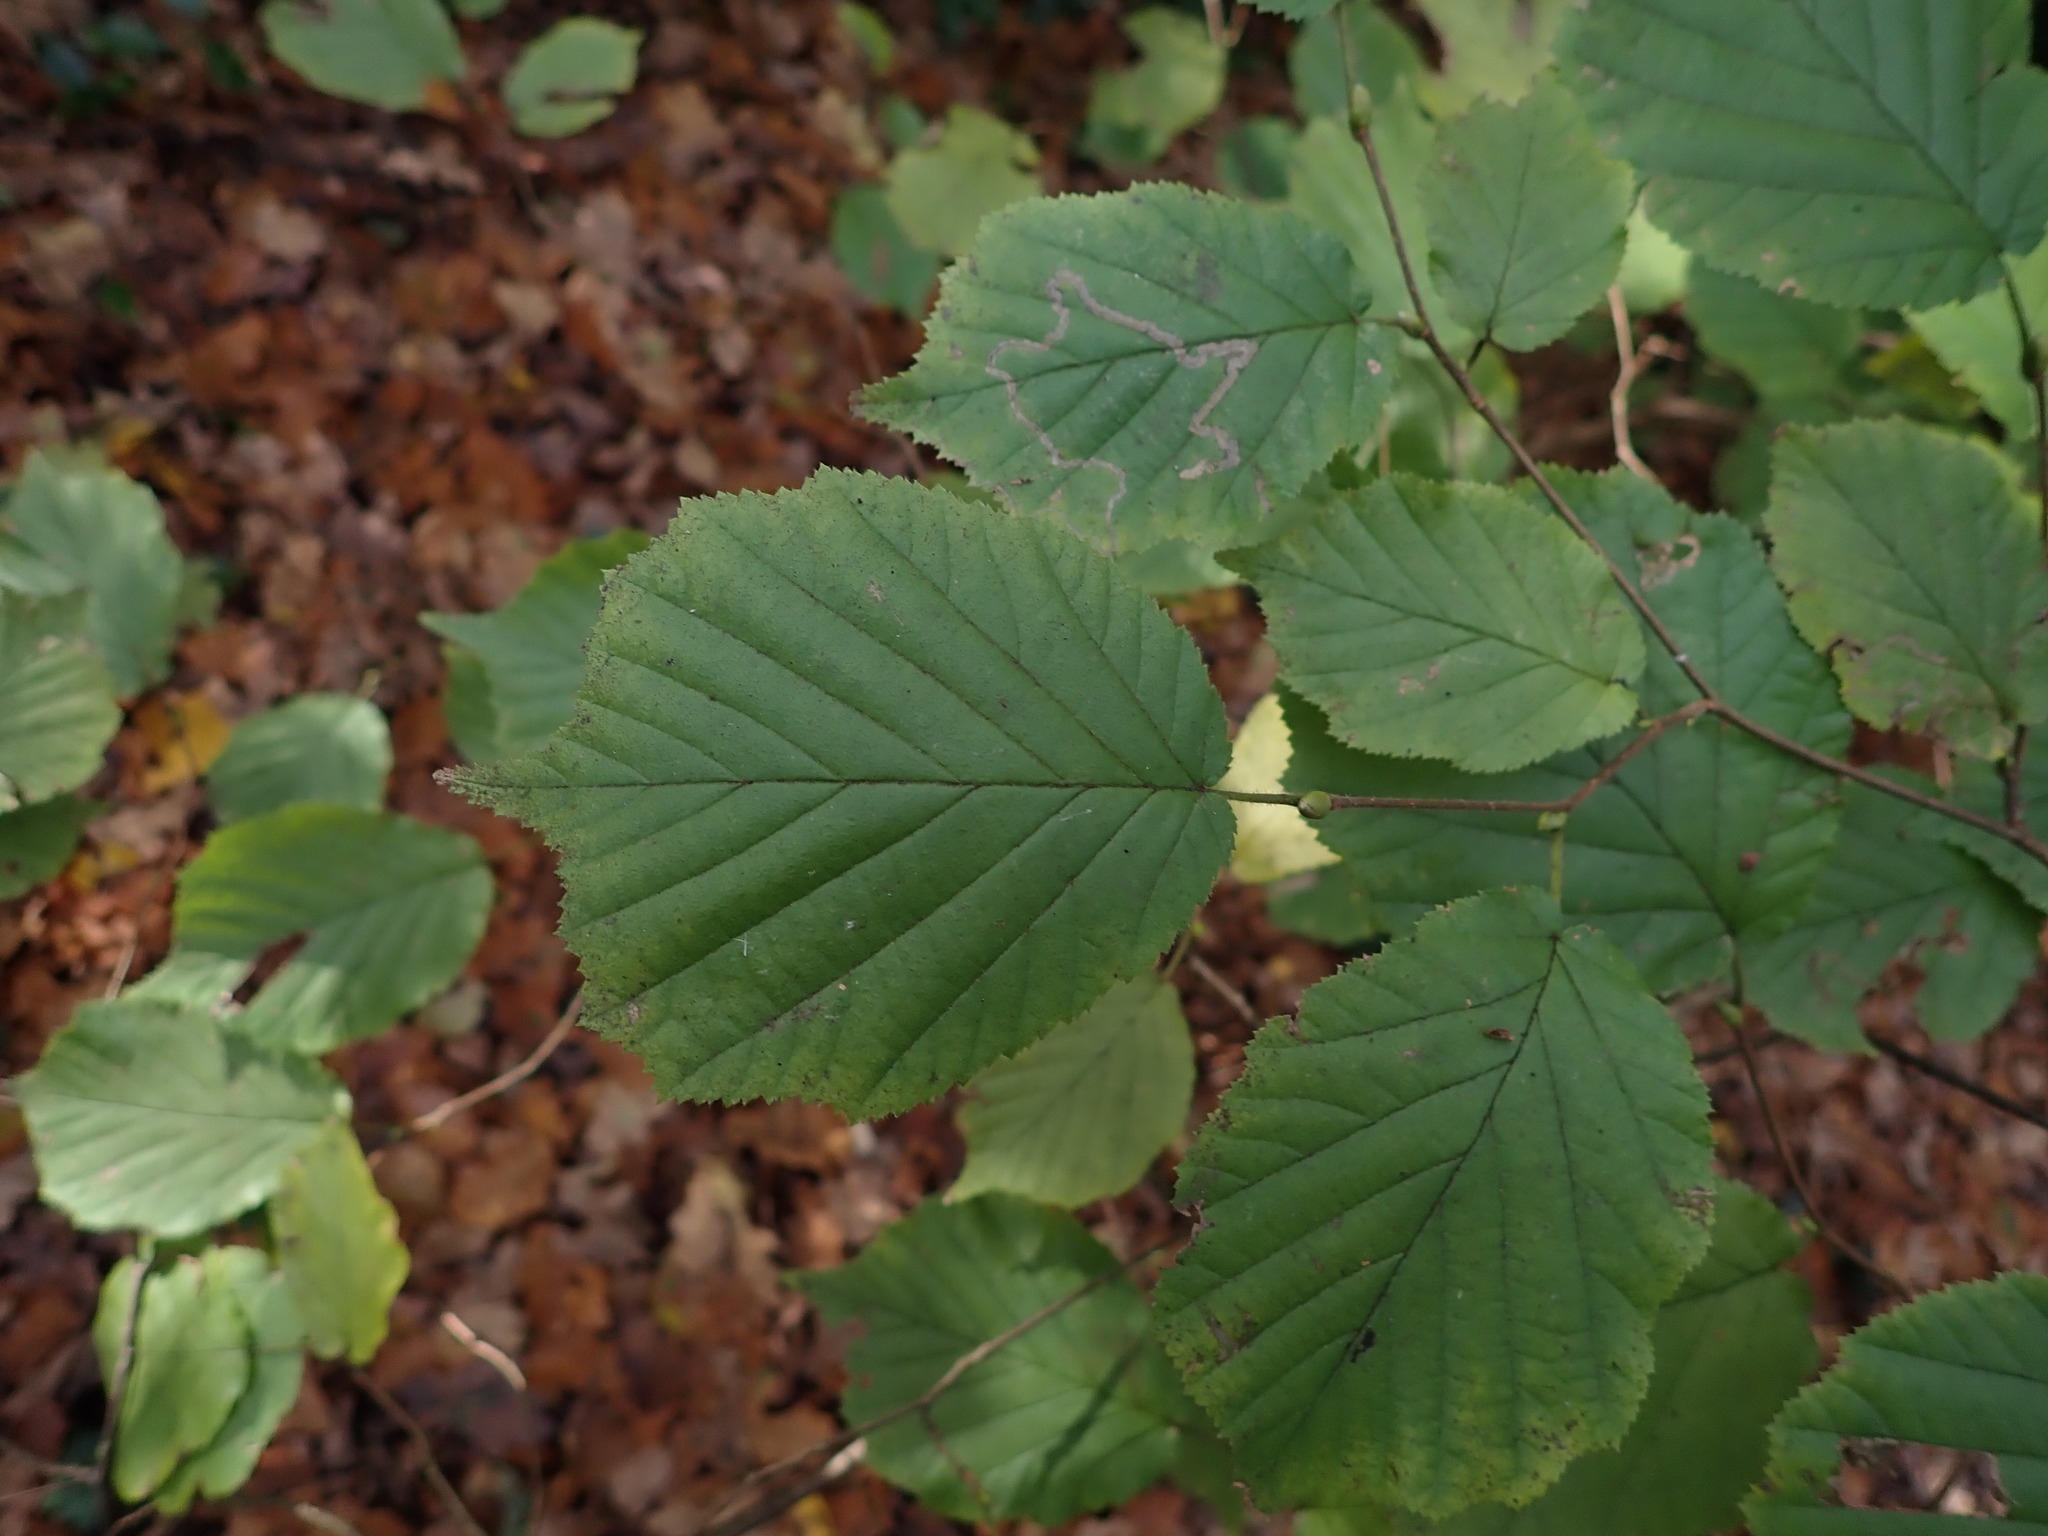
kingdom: Plantae
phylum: Tracheophyta
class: Magnoliopsida
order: Fagales
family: Betulaceae
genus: Corylus
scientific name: Corylus avellana
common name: European hazel
